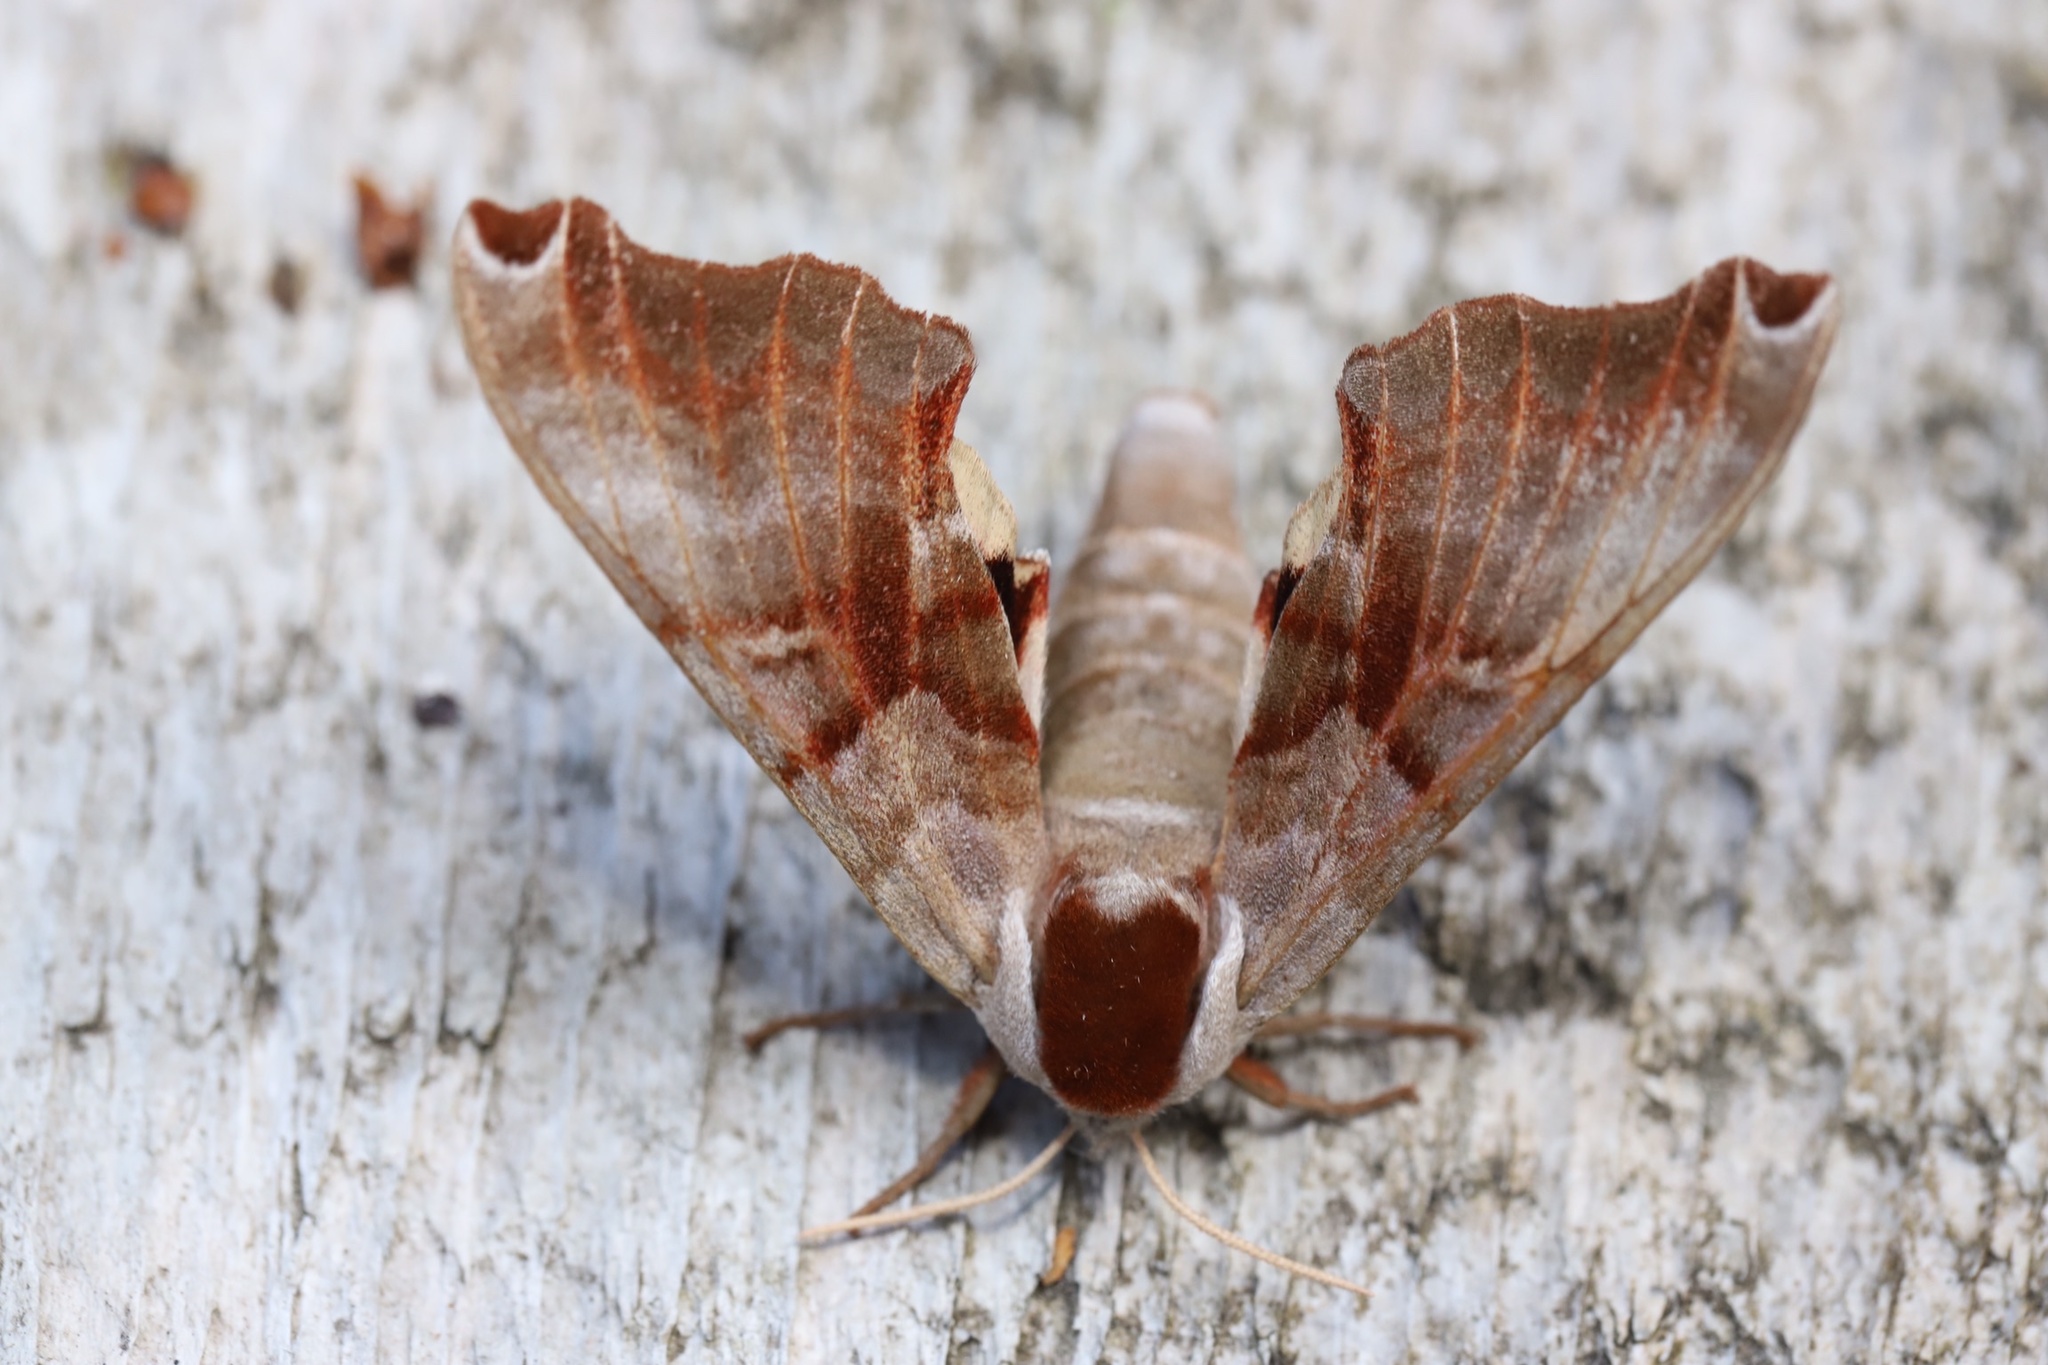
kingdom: Animalia
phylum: Arthropoda
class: Insecta
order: Lepidoptera
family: Sphingidae
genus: Smerinthus
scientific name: Smerinthus jamaicensis
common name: Twin spotted sphinx
